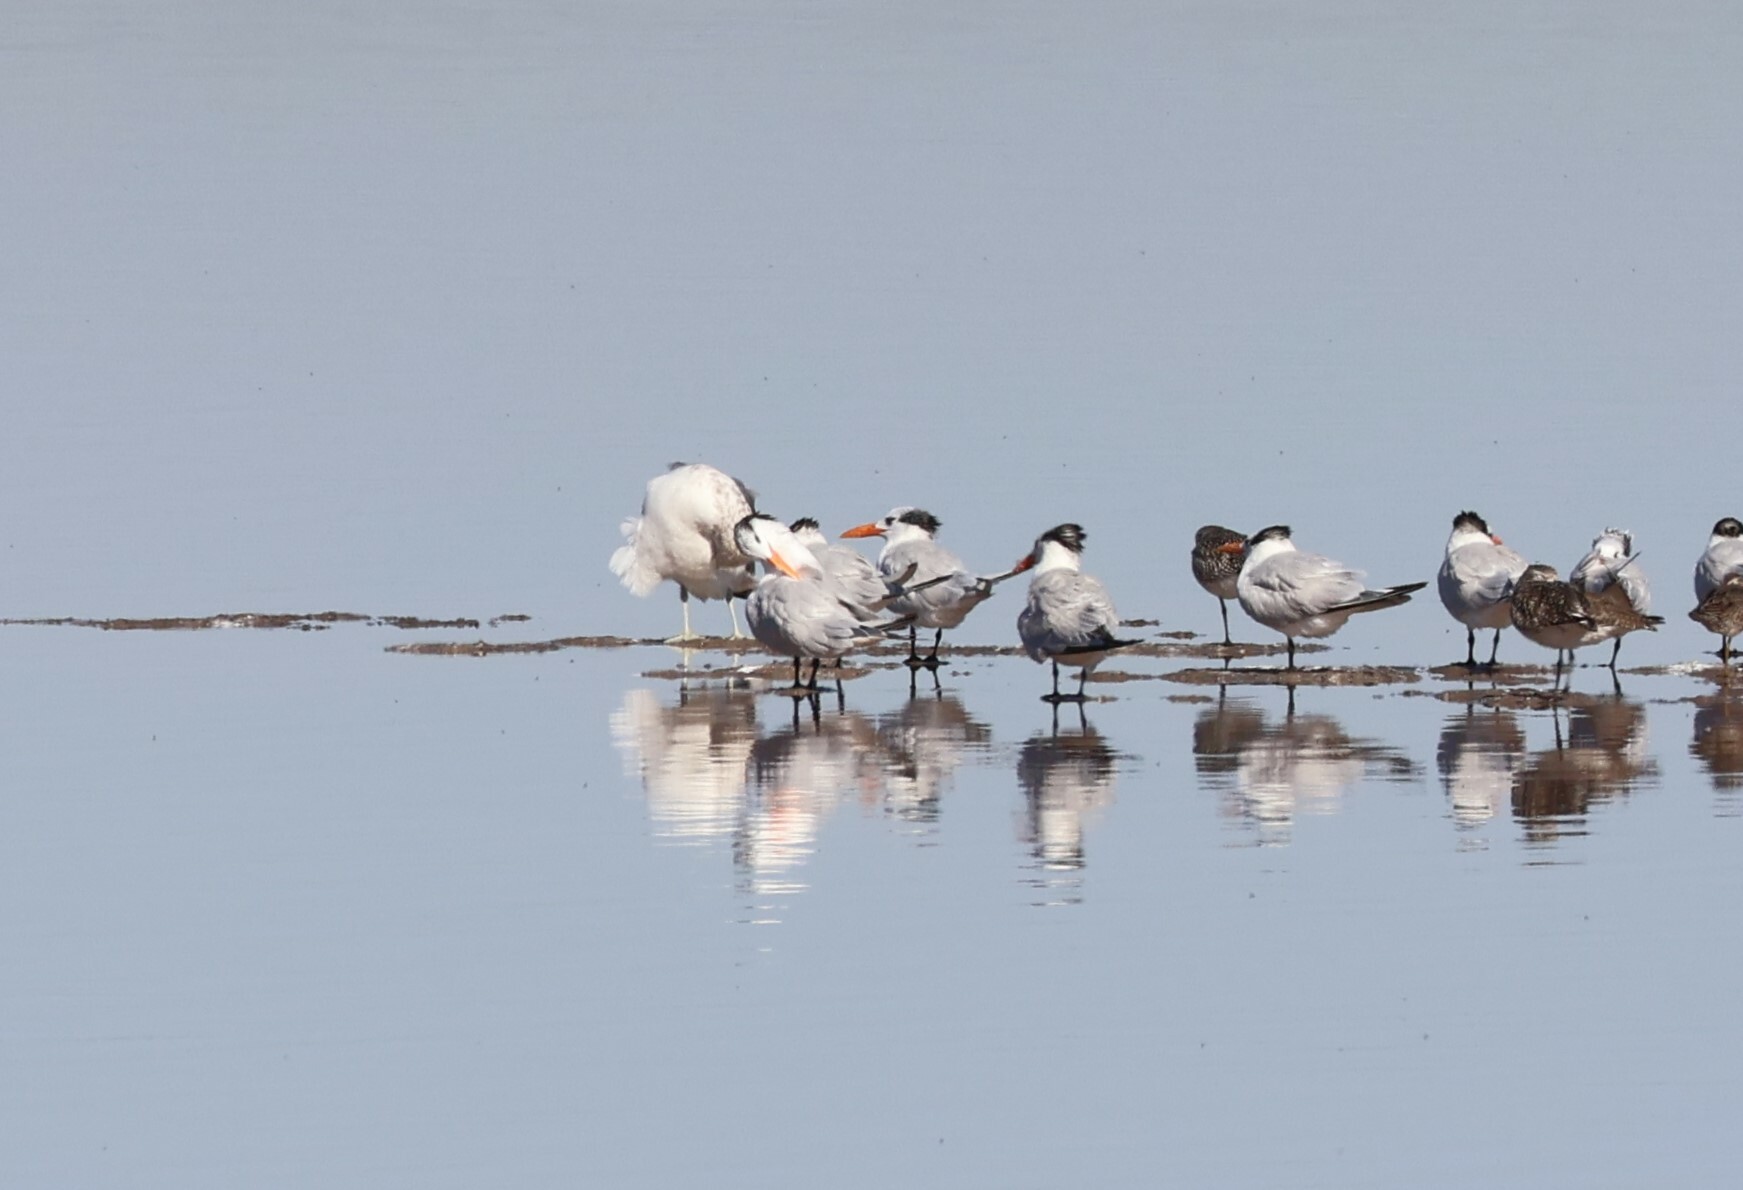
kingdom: Animalia
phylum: Chordata
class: Aves
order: Charadriiformes
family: Laridae
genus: Thalasseus
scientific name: Thalasseus maximus
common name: Royal tern
